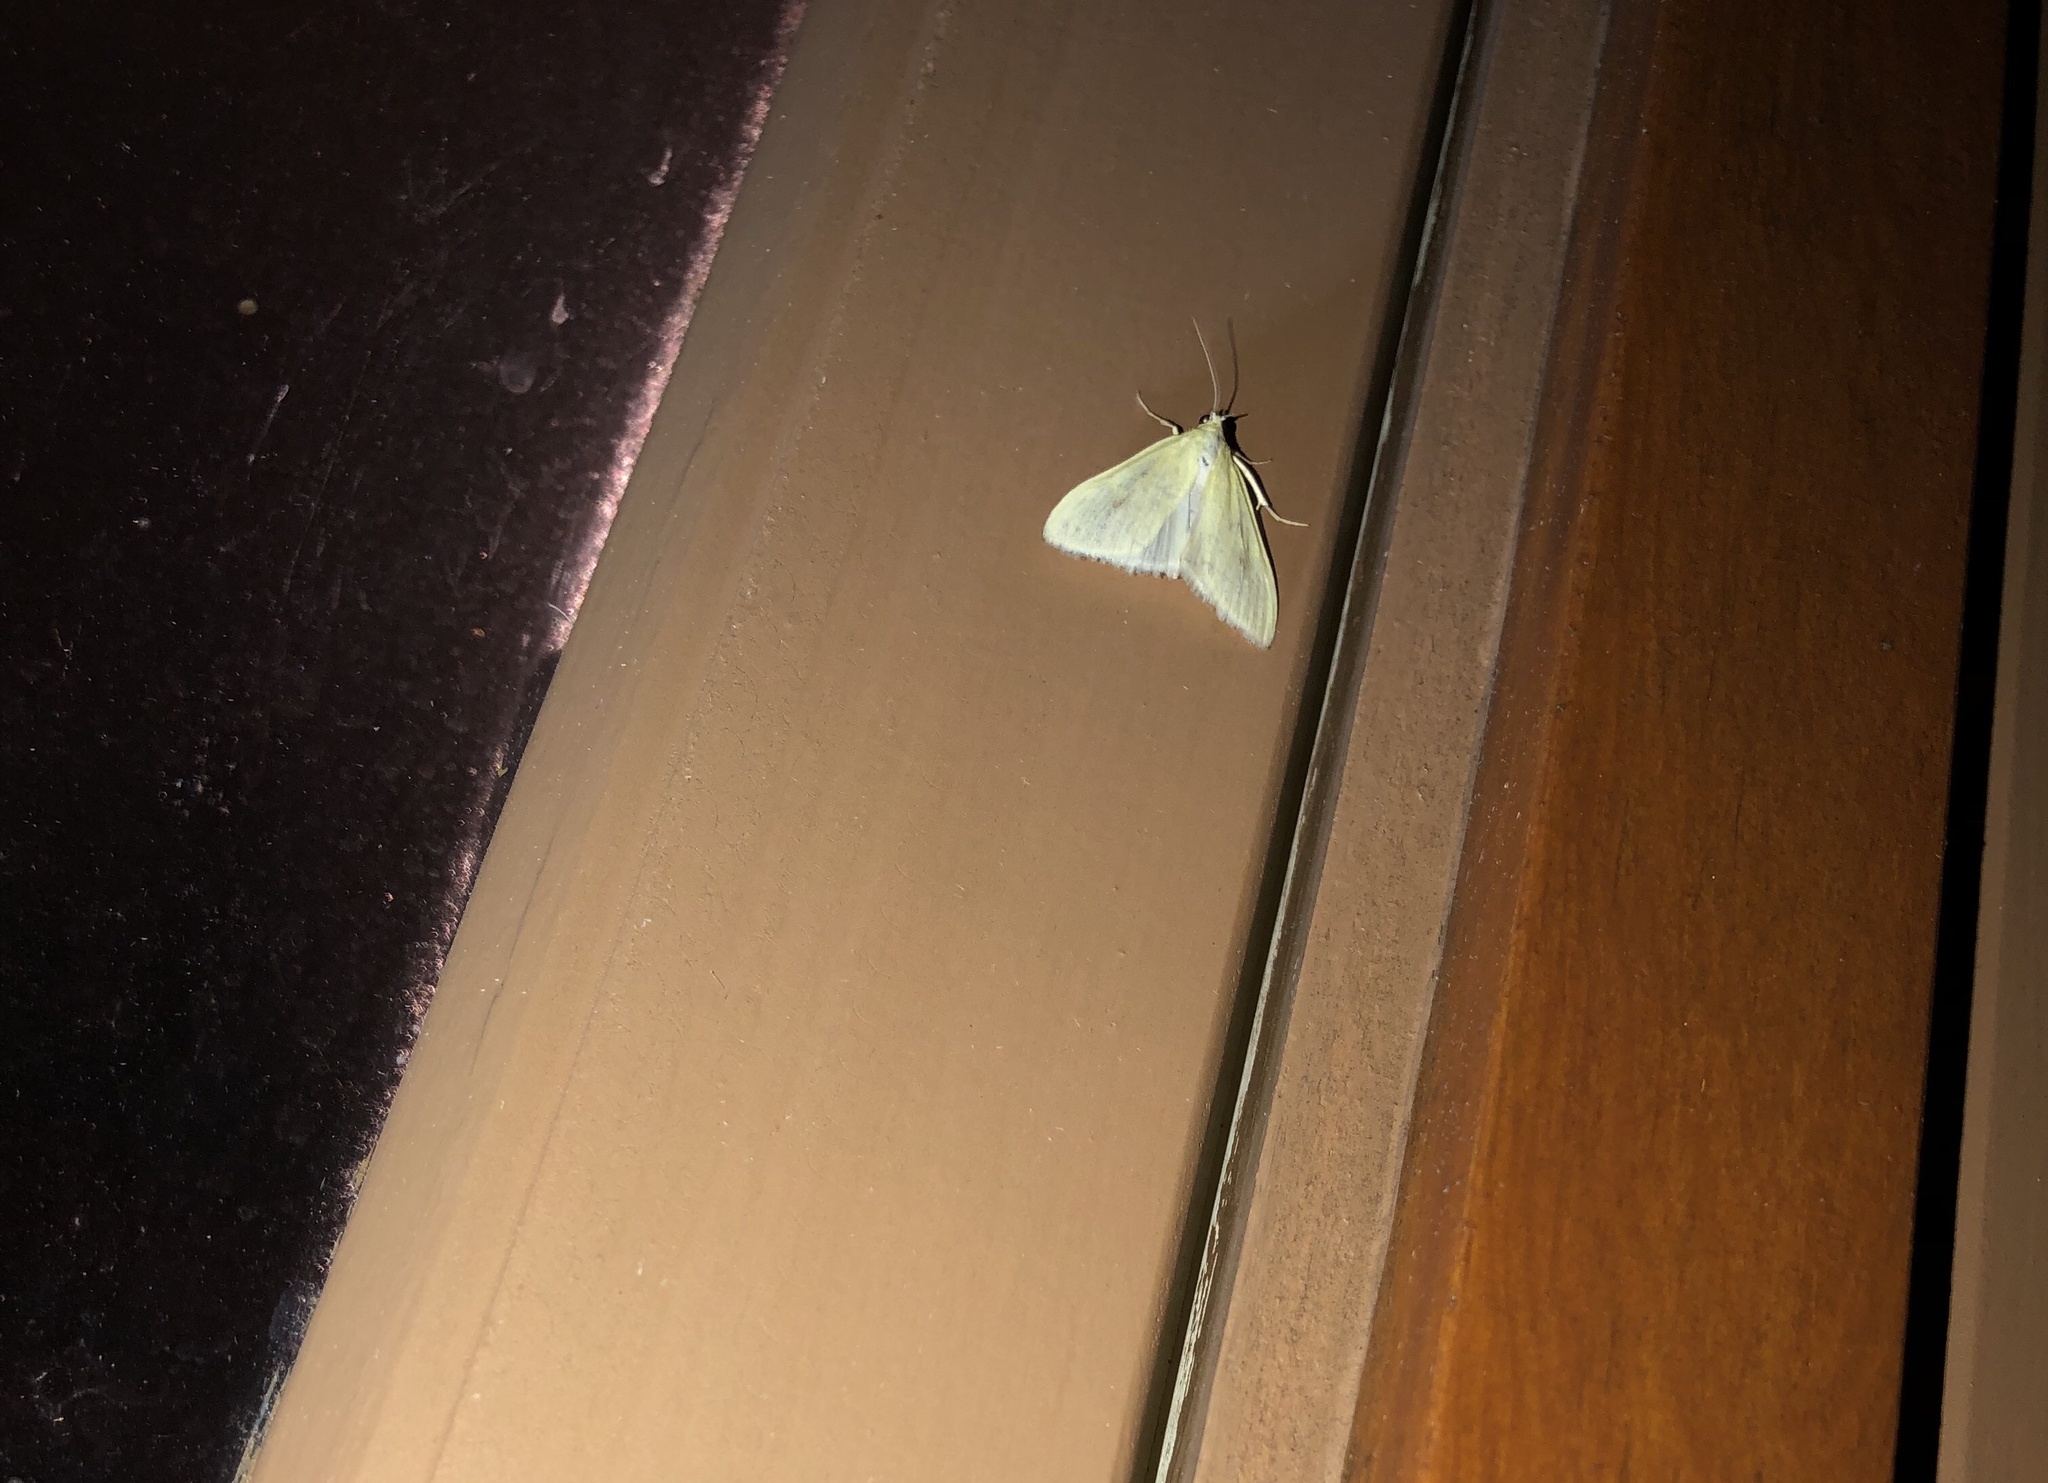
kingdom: Animalia
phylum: Arthropoda
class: Insecta
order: Lepidoptera
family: Crambidae
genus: Sitochroa
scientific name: Sitochroa palealis
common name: Greenish-yellow sitochroa moth
